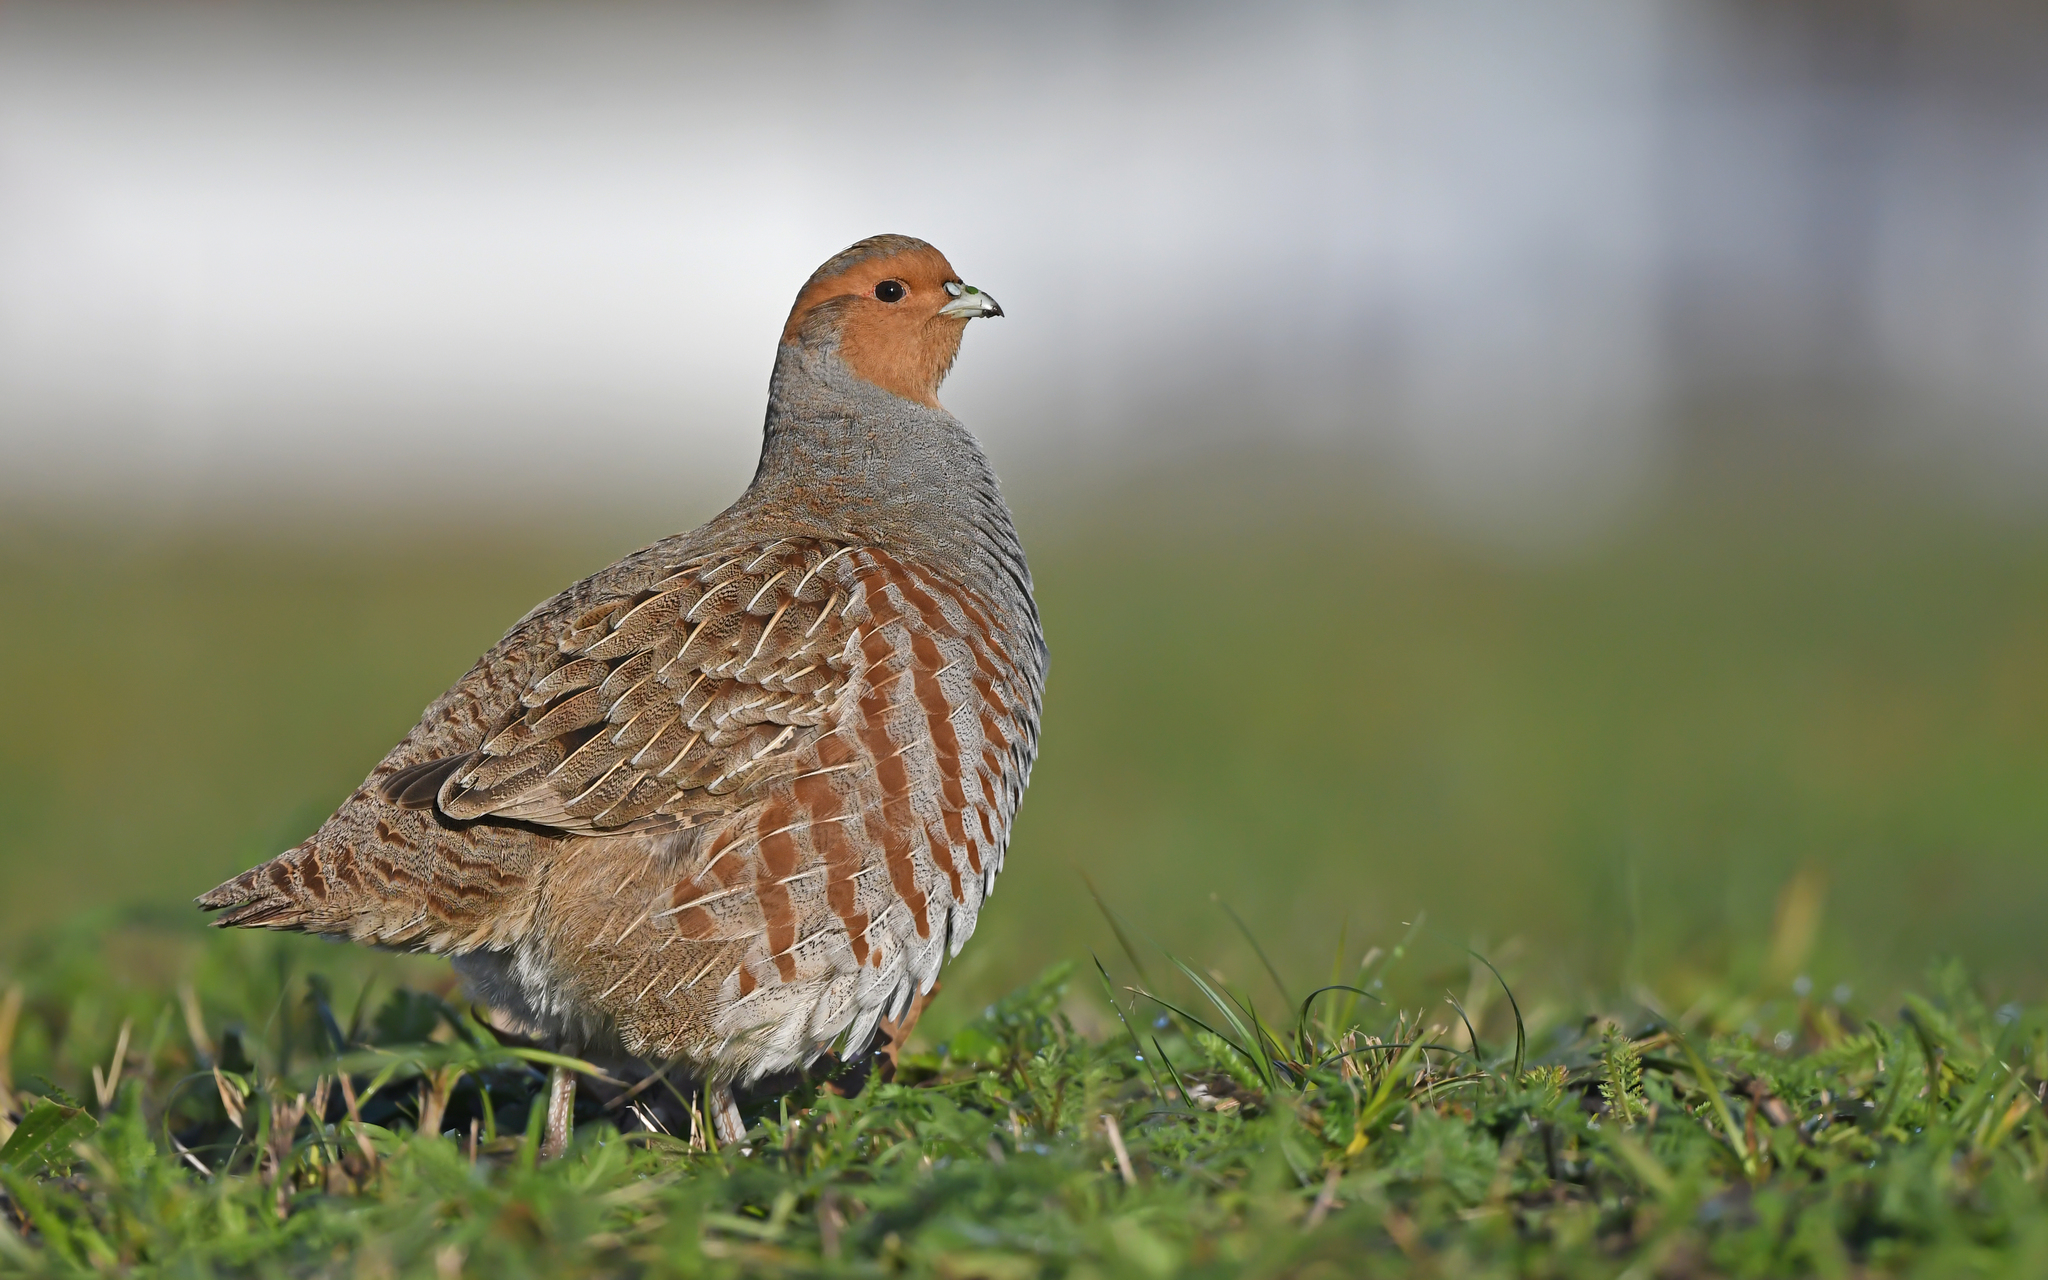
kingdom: Animalia
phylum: Chordata
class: Aves
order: Galliformes
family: Phasianidae
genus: Perdix
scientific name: Perdix perdix
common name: Grey partridge
